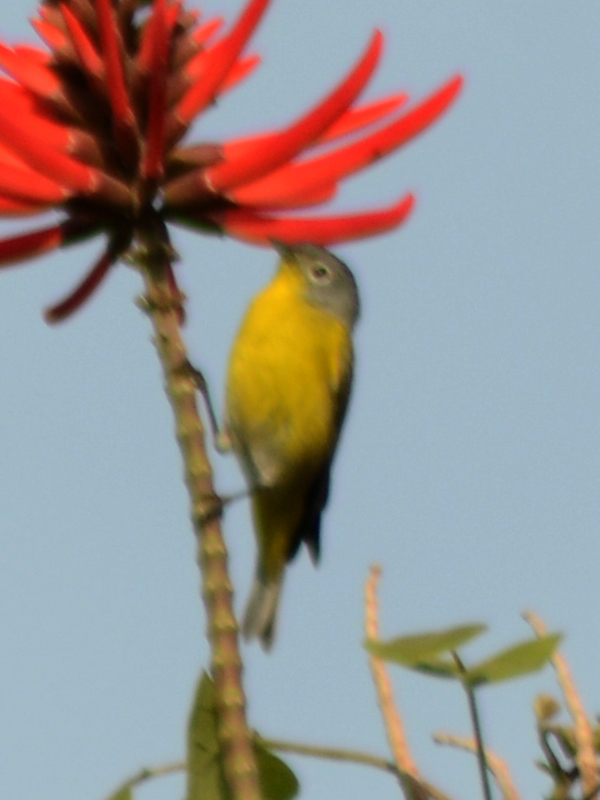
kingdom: Animalia
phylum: Chordata
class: Aves
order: Passeriformes
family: Parulidae
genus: Leiothlypis
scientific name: Leiothlypis ruficapilla
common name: Nashville warbler
